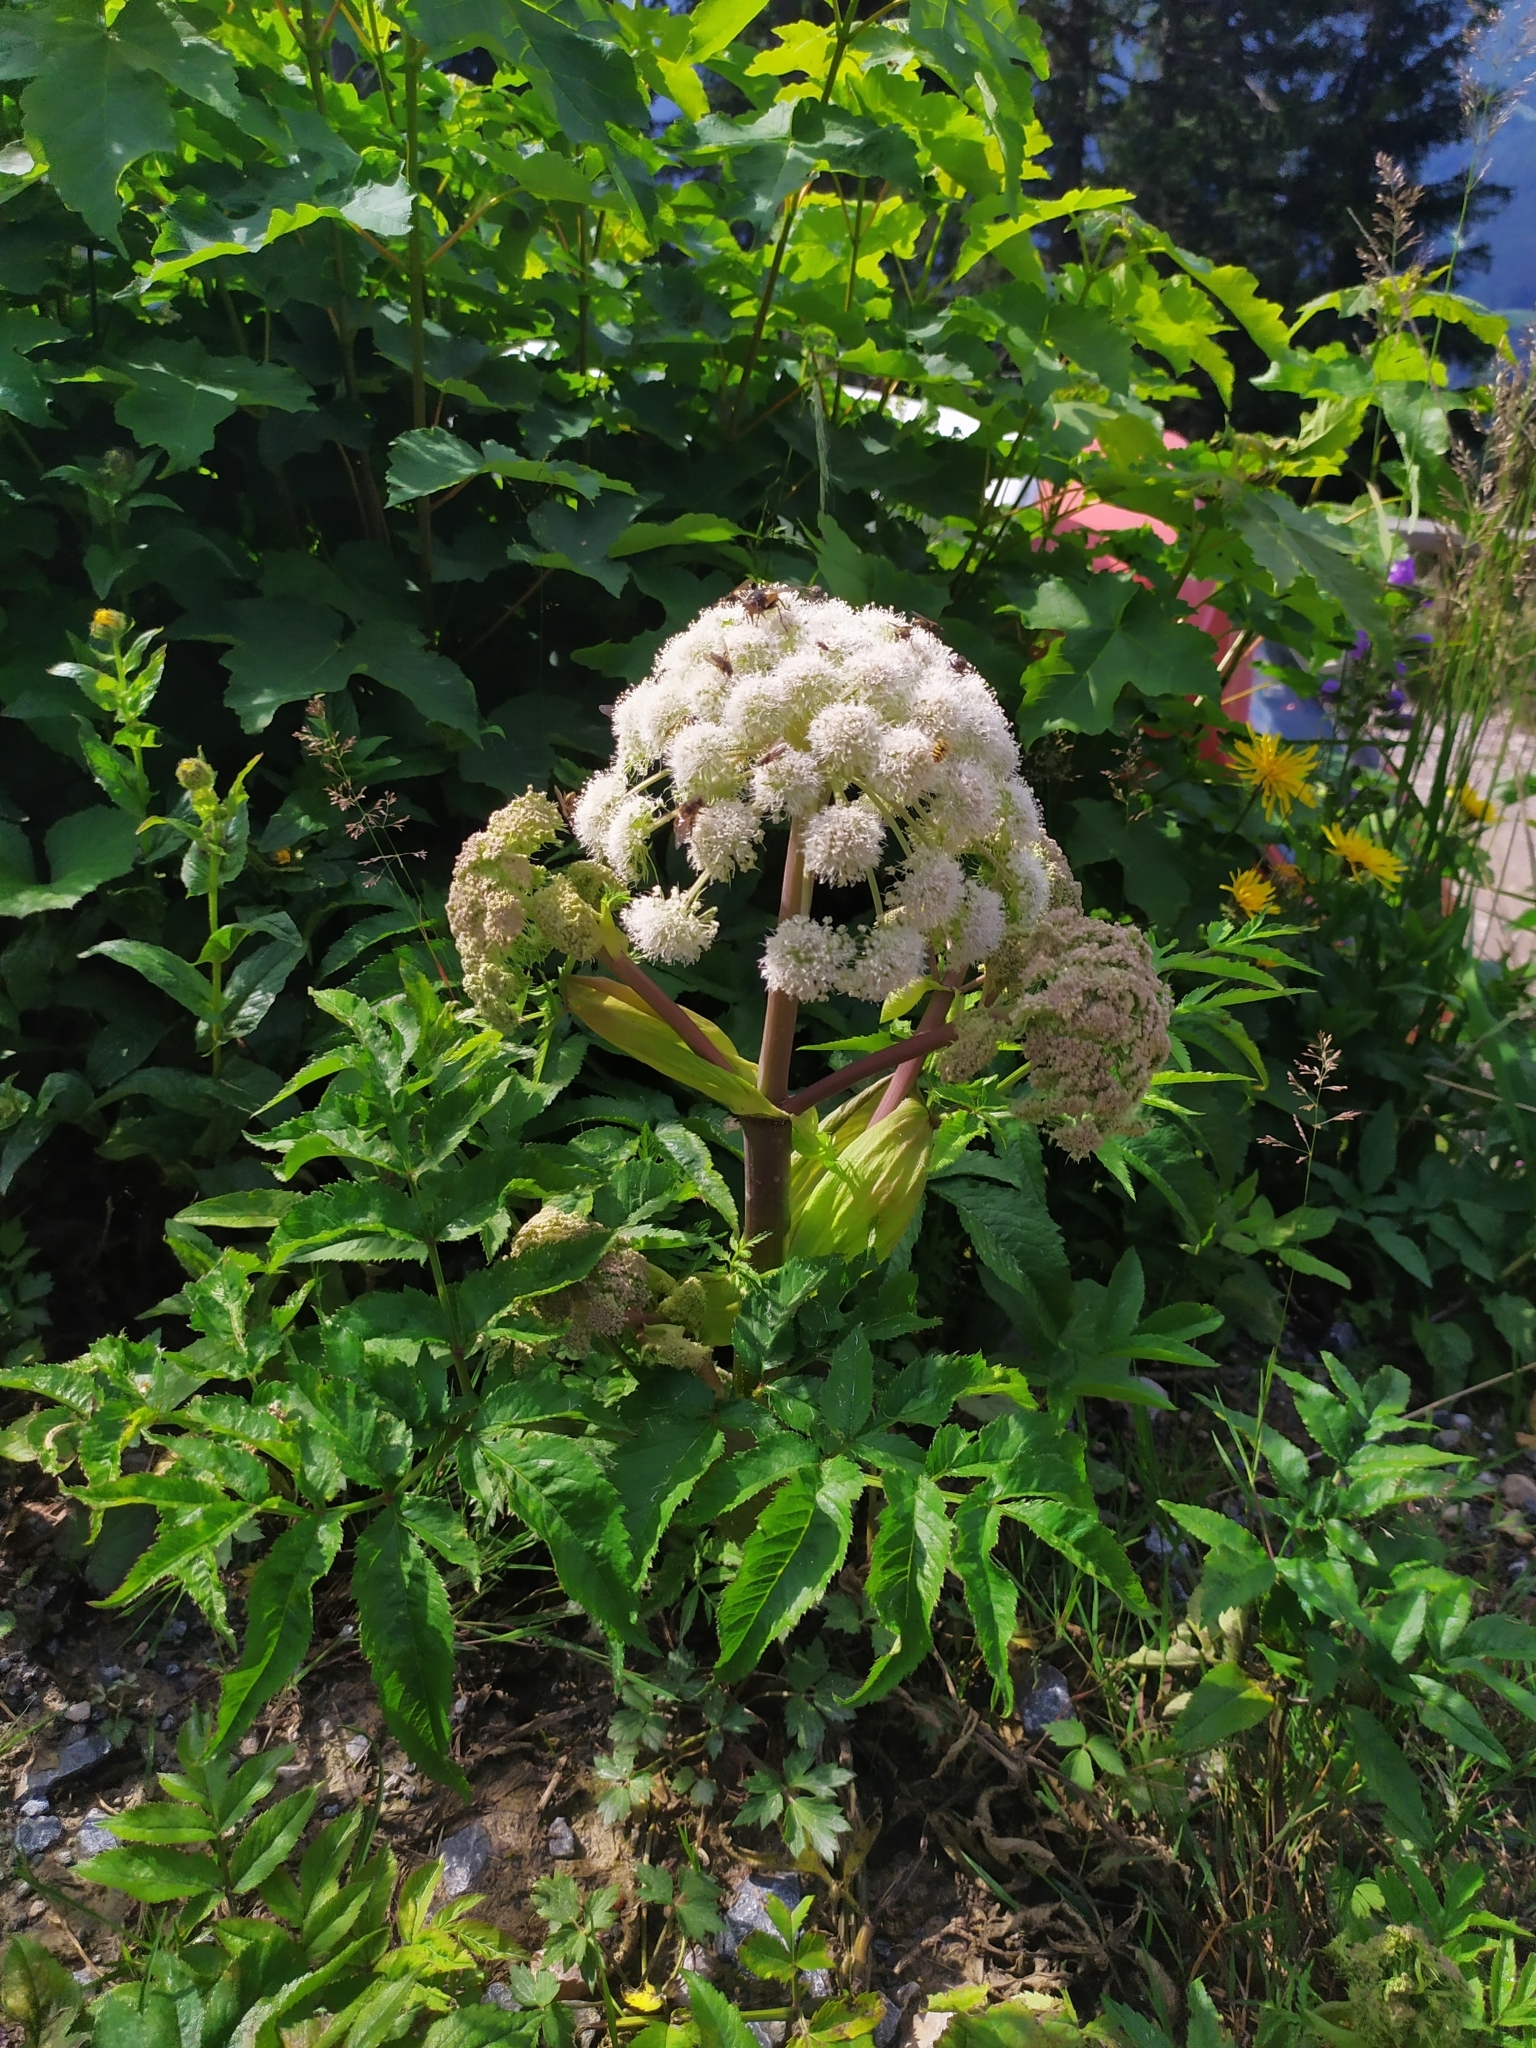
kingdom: Plantae
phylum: Tracheophyta
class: Magnoliopsida
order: Apiales
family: Apiaceae
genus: Angelica
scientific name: Angelica sylvestris
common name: Wild angelica
